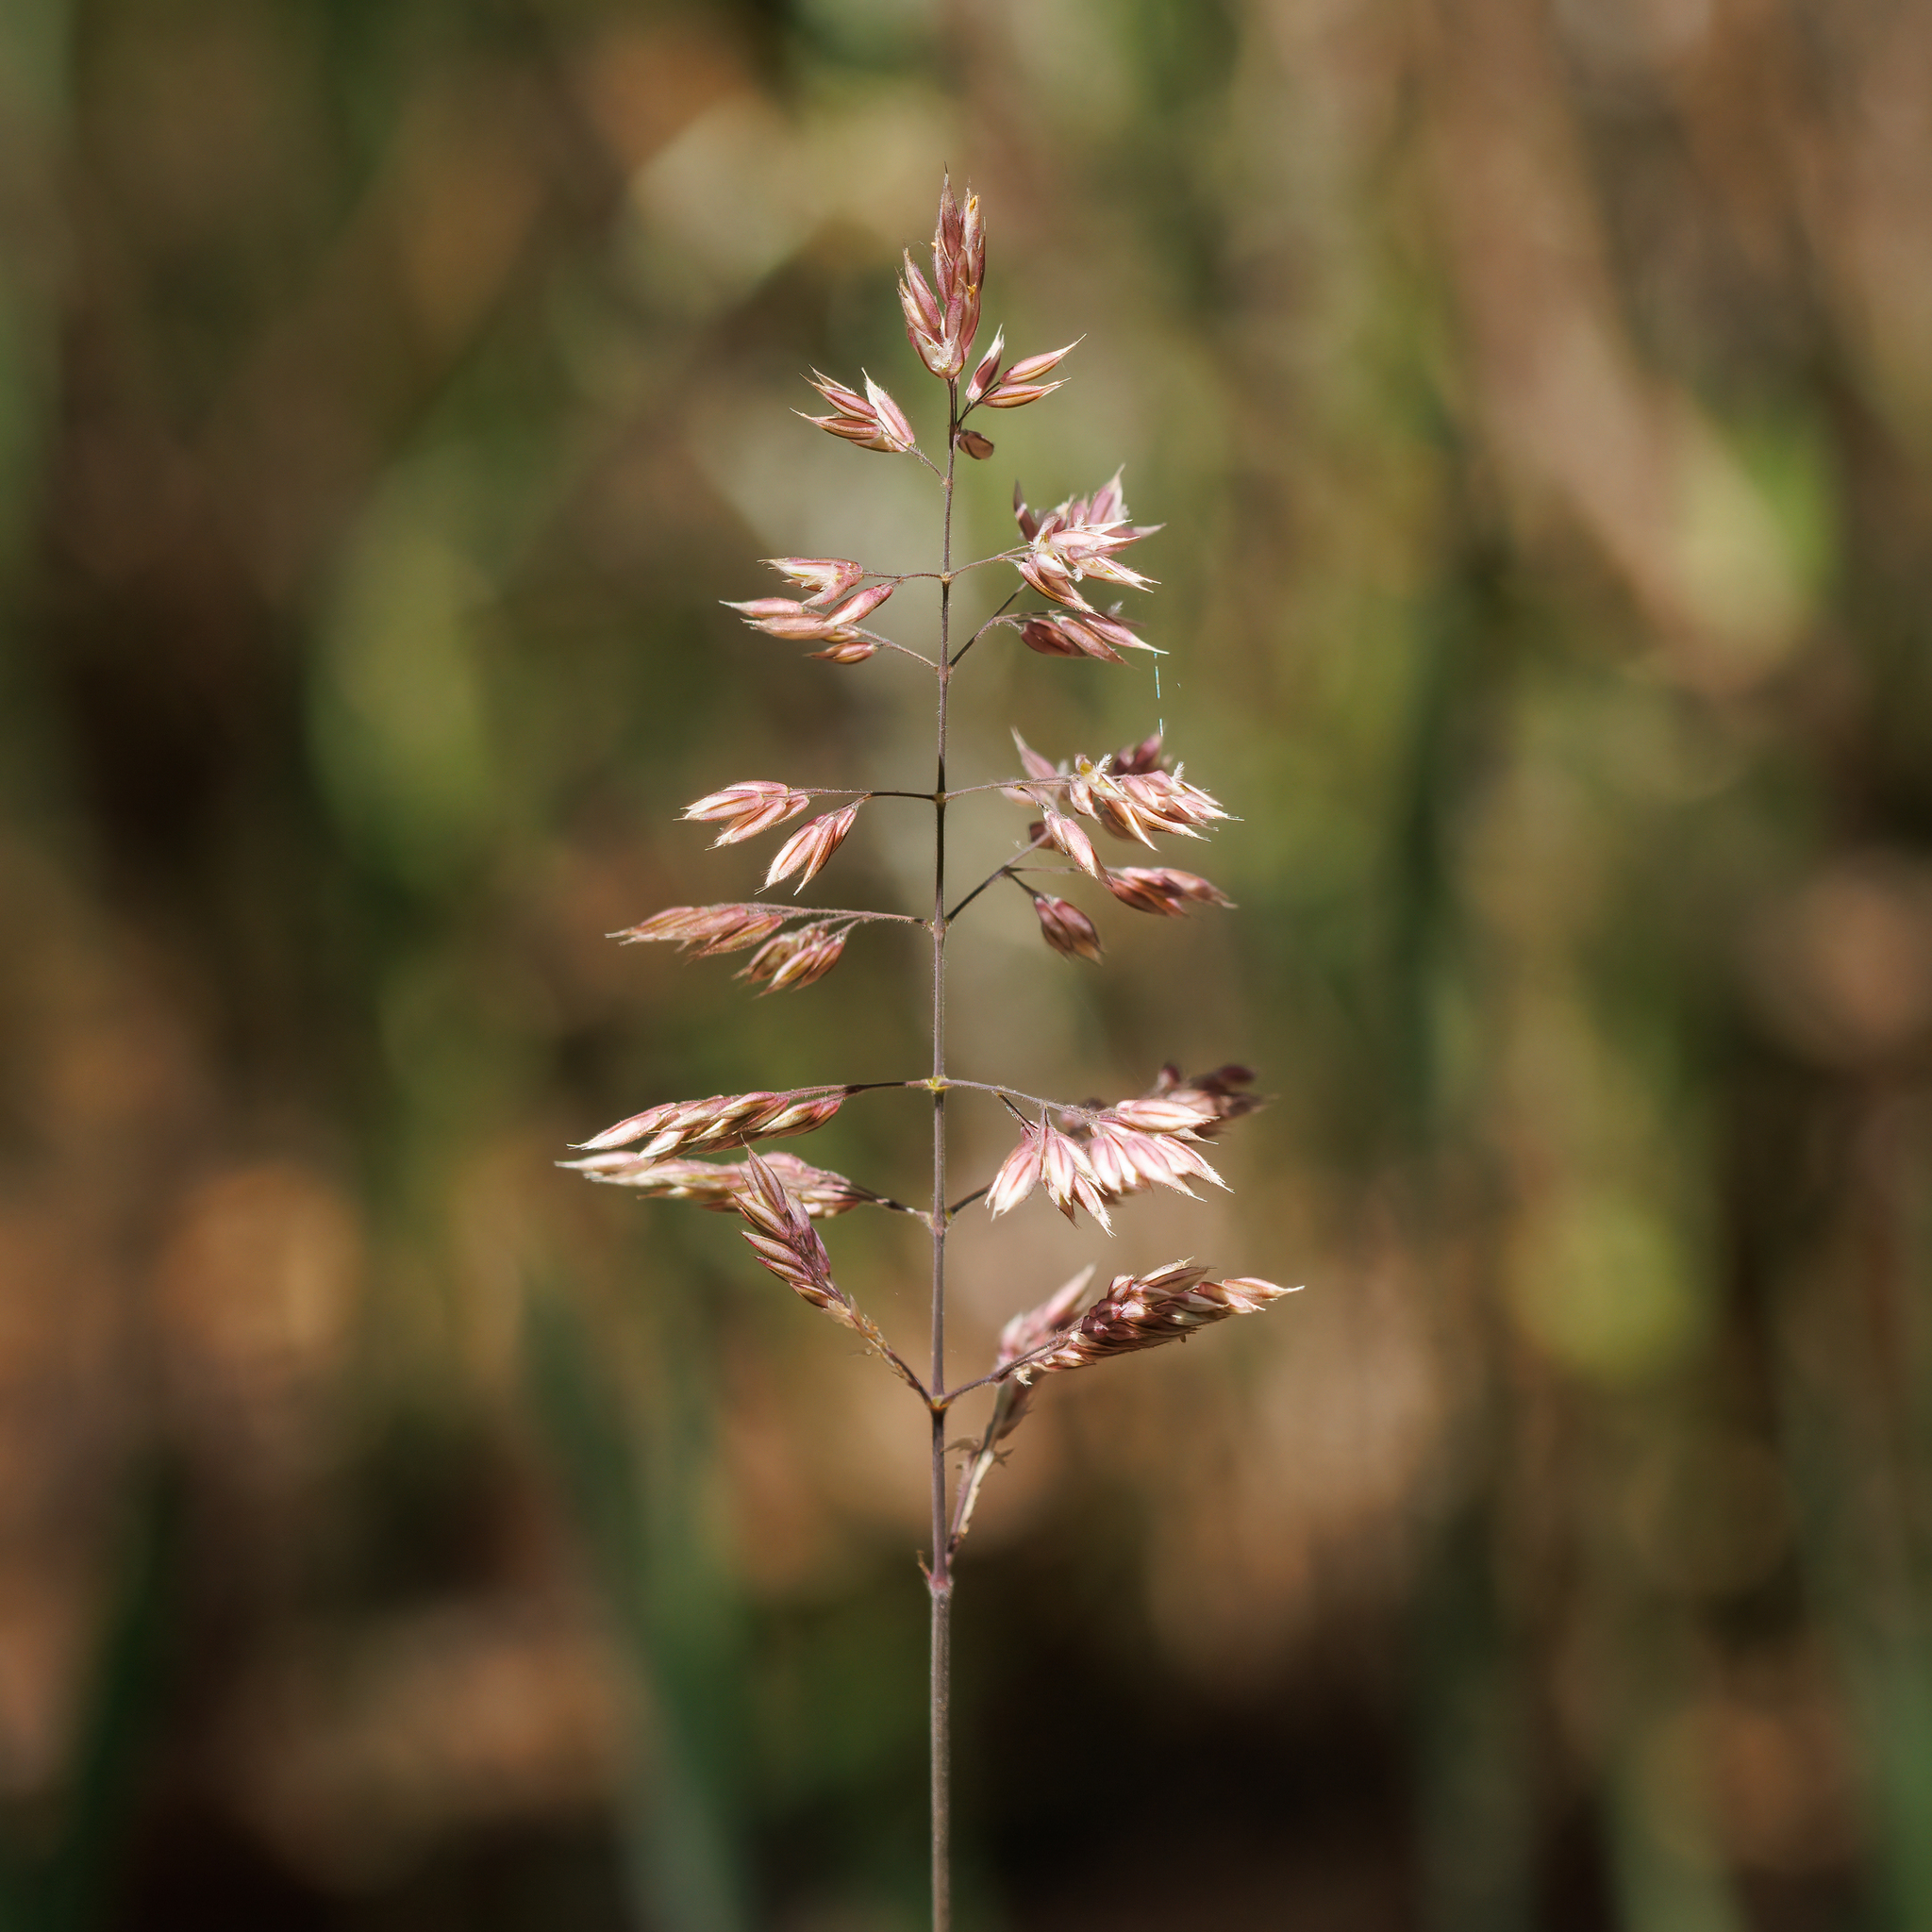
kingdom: Plantae
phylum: Tracheophyta
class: Liliopsida
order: Poales
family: Poaceae
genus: Holcus
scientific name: Holcus lanatus
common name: Yorkshire-fog
